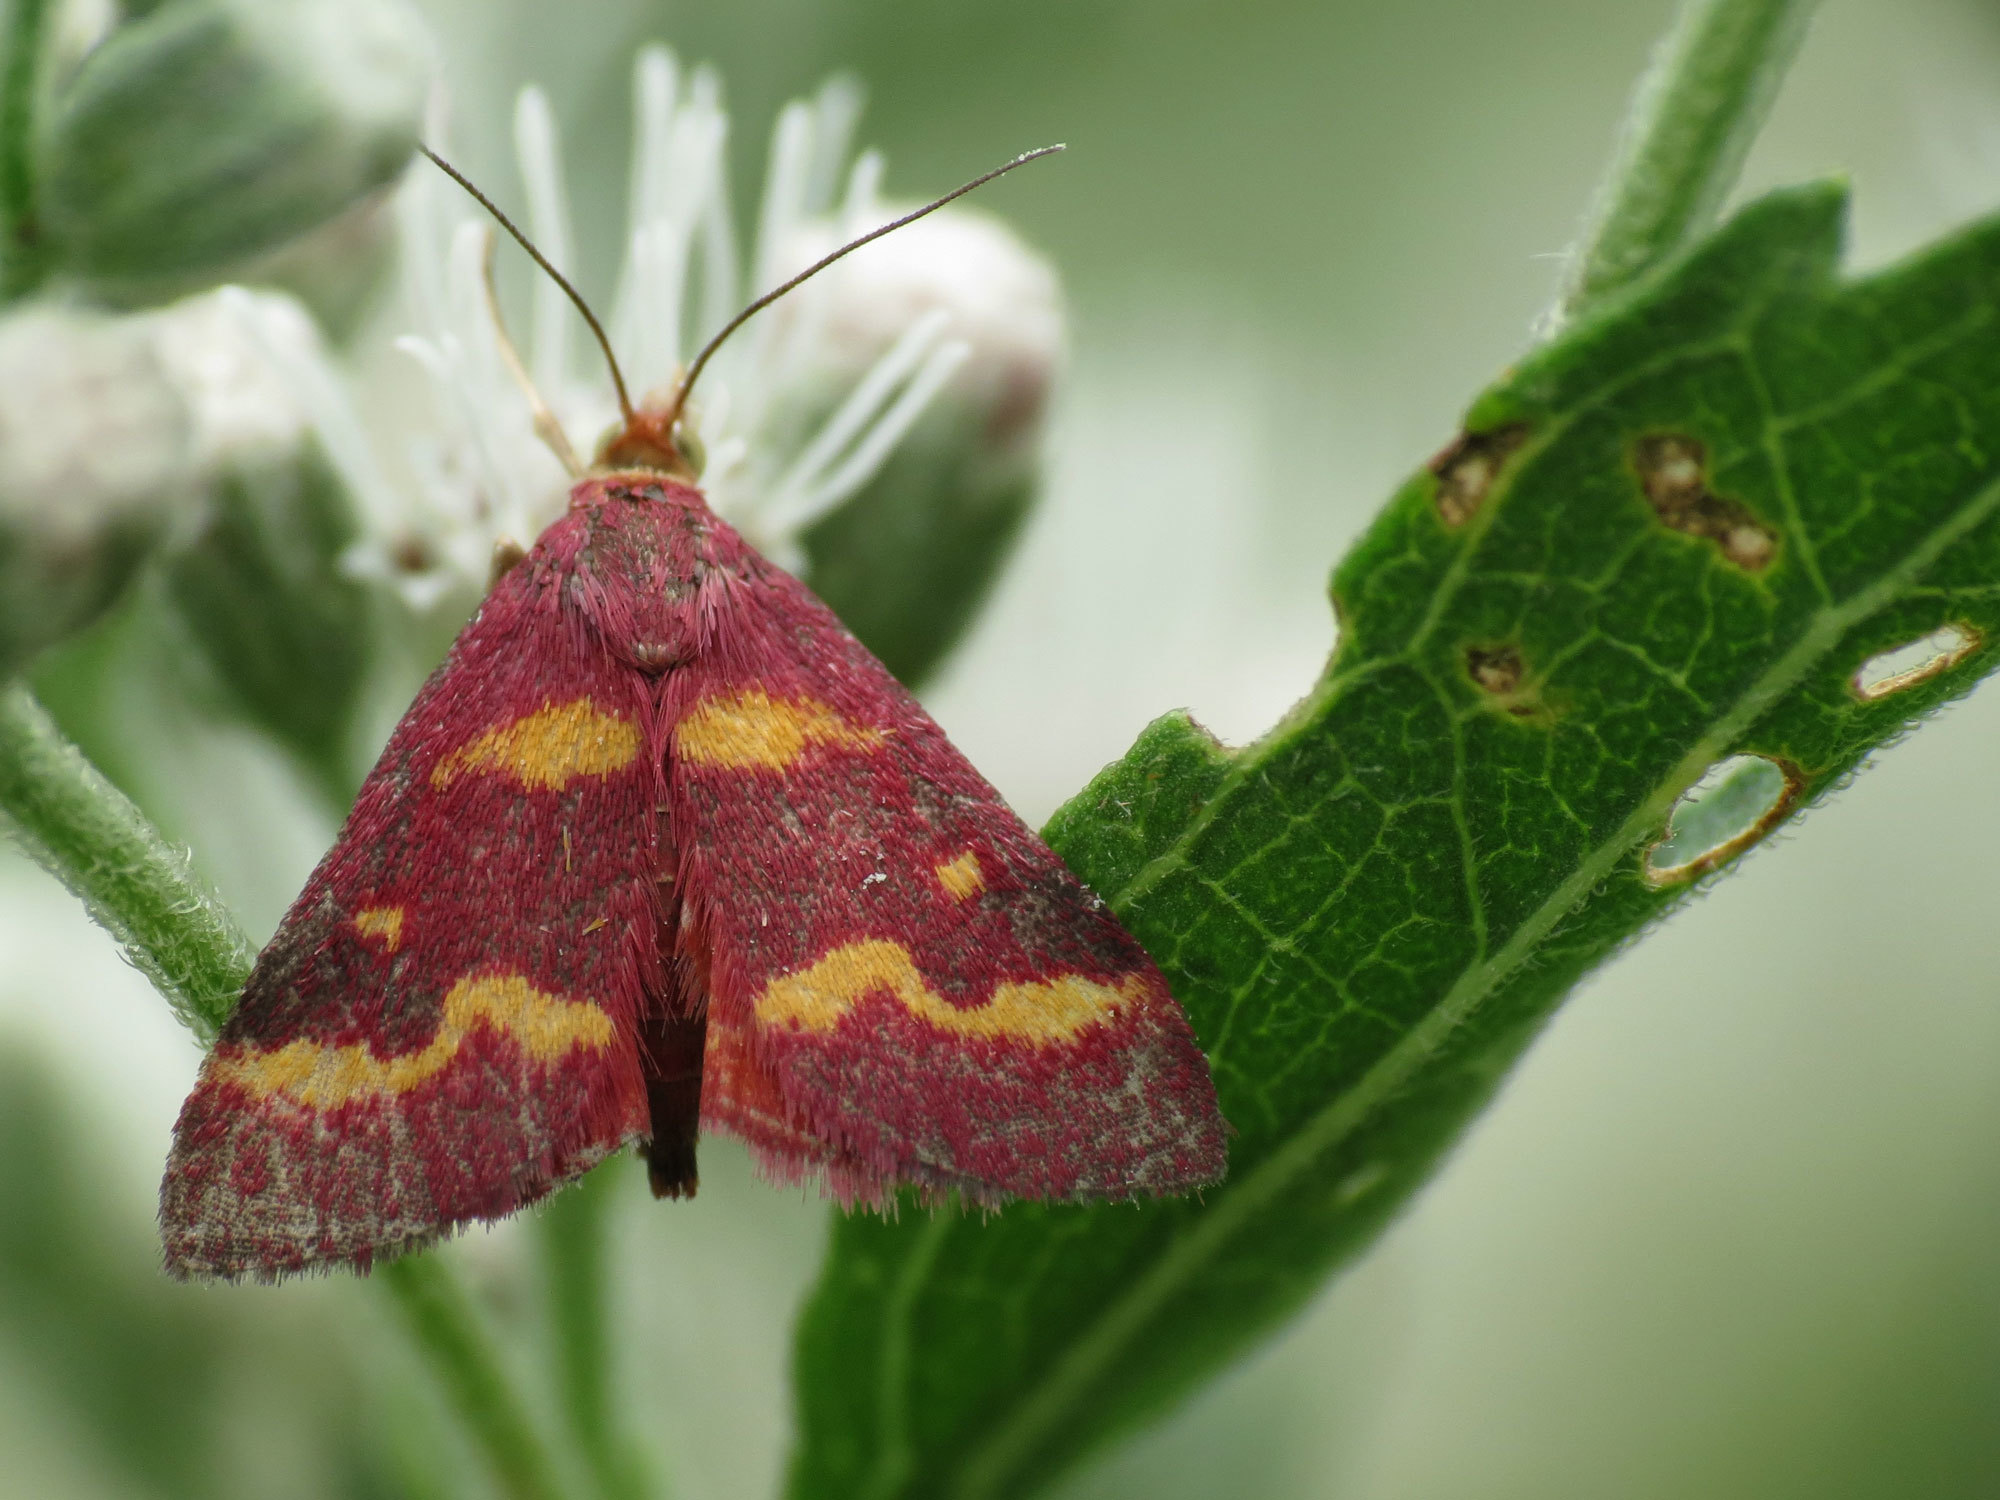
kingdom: Animalia
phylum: Arthropoda
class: Insecta
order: Lepidoptera
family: Crambidae
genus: Pyrausta
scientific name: Pyrausta tyralis
